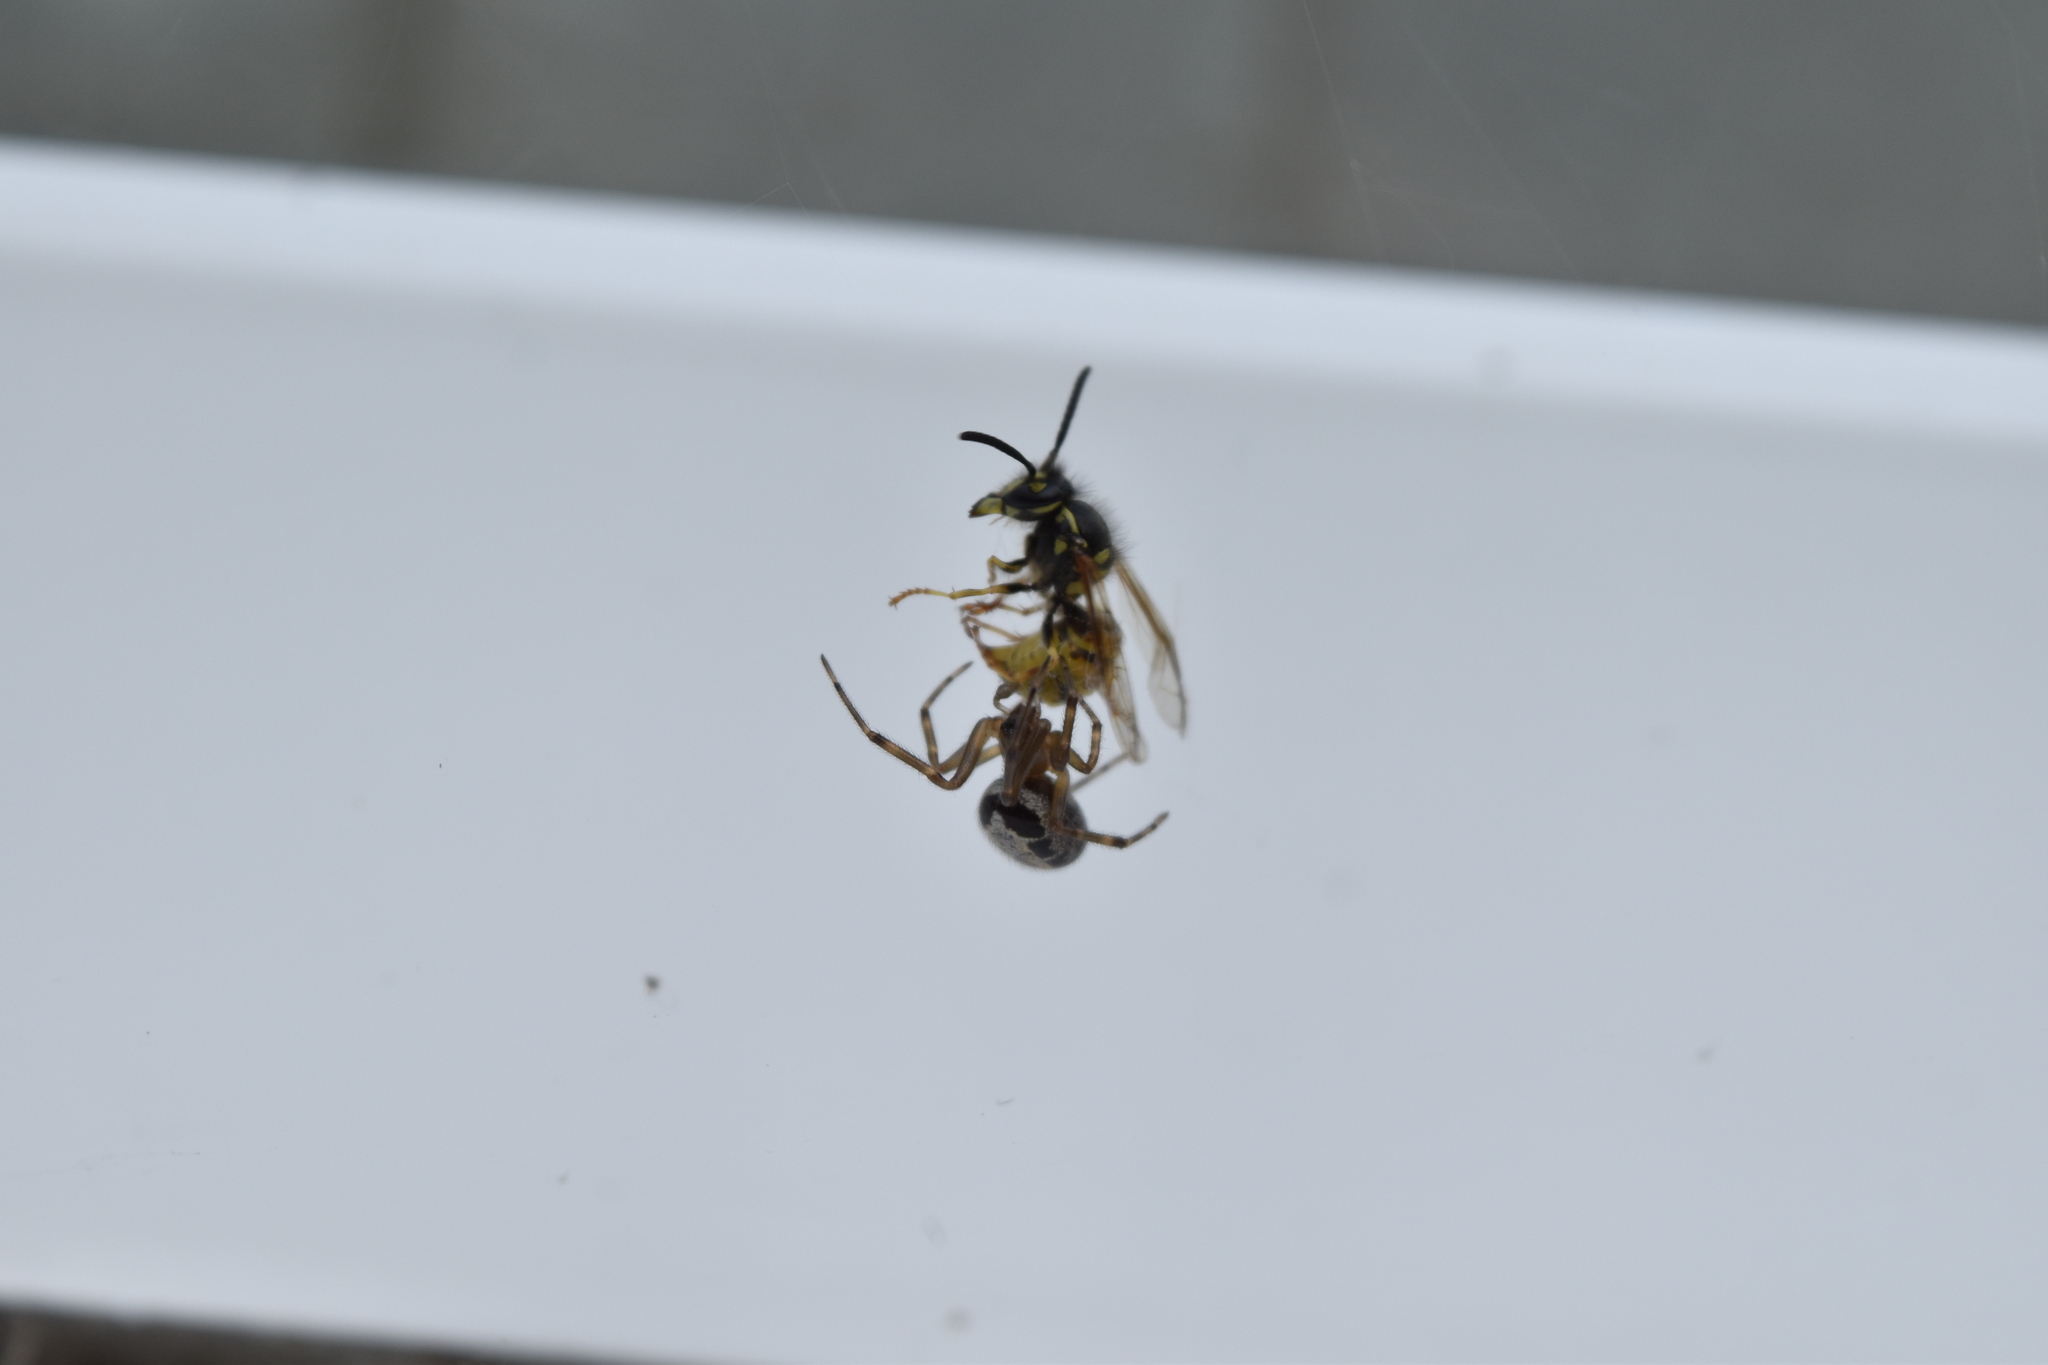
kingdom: Animalia
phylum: Arthropoda
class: Arachnida
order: Araneae
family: Theridiidae
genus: Steatoda
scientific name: Steatoda nobilis
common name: Cobweb weaver
